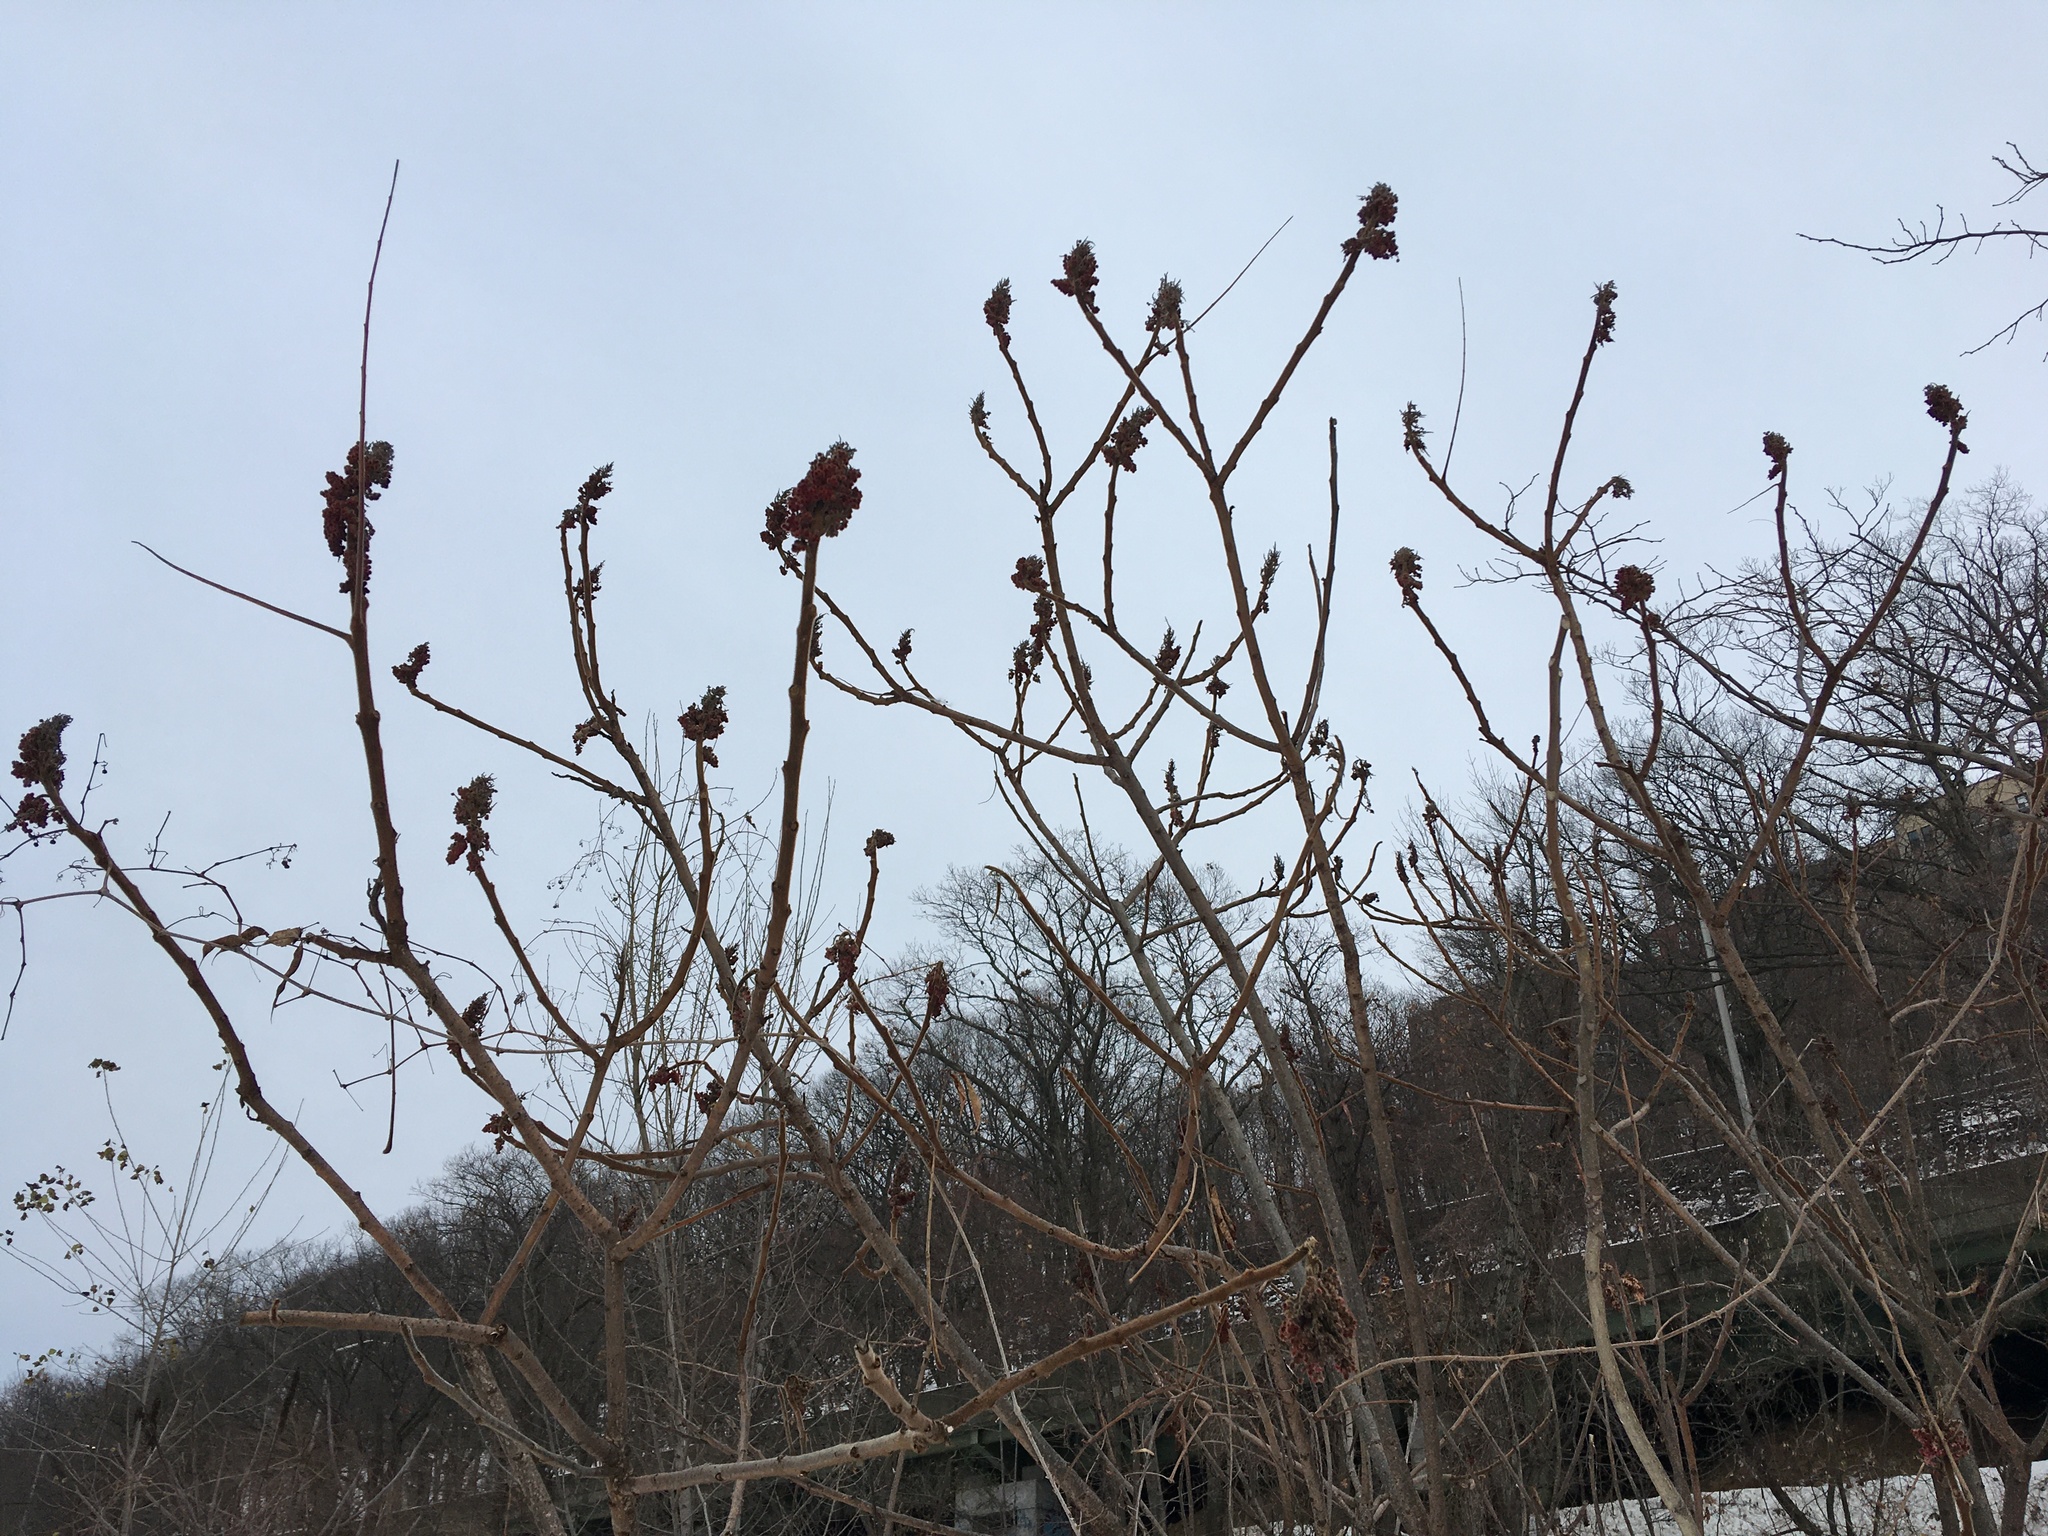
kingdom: Plantae
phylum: Tracheophyta
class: Magnoliopsida
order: Sapindales
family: Anacardiaceae
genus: Rhus
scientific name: Rhus typhina
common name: Staghorn sumac
